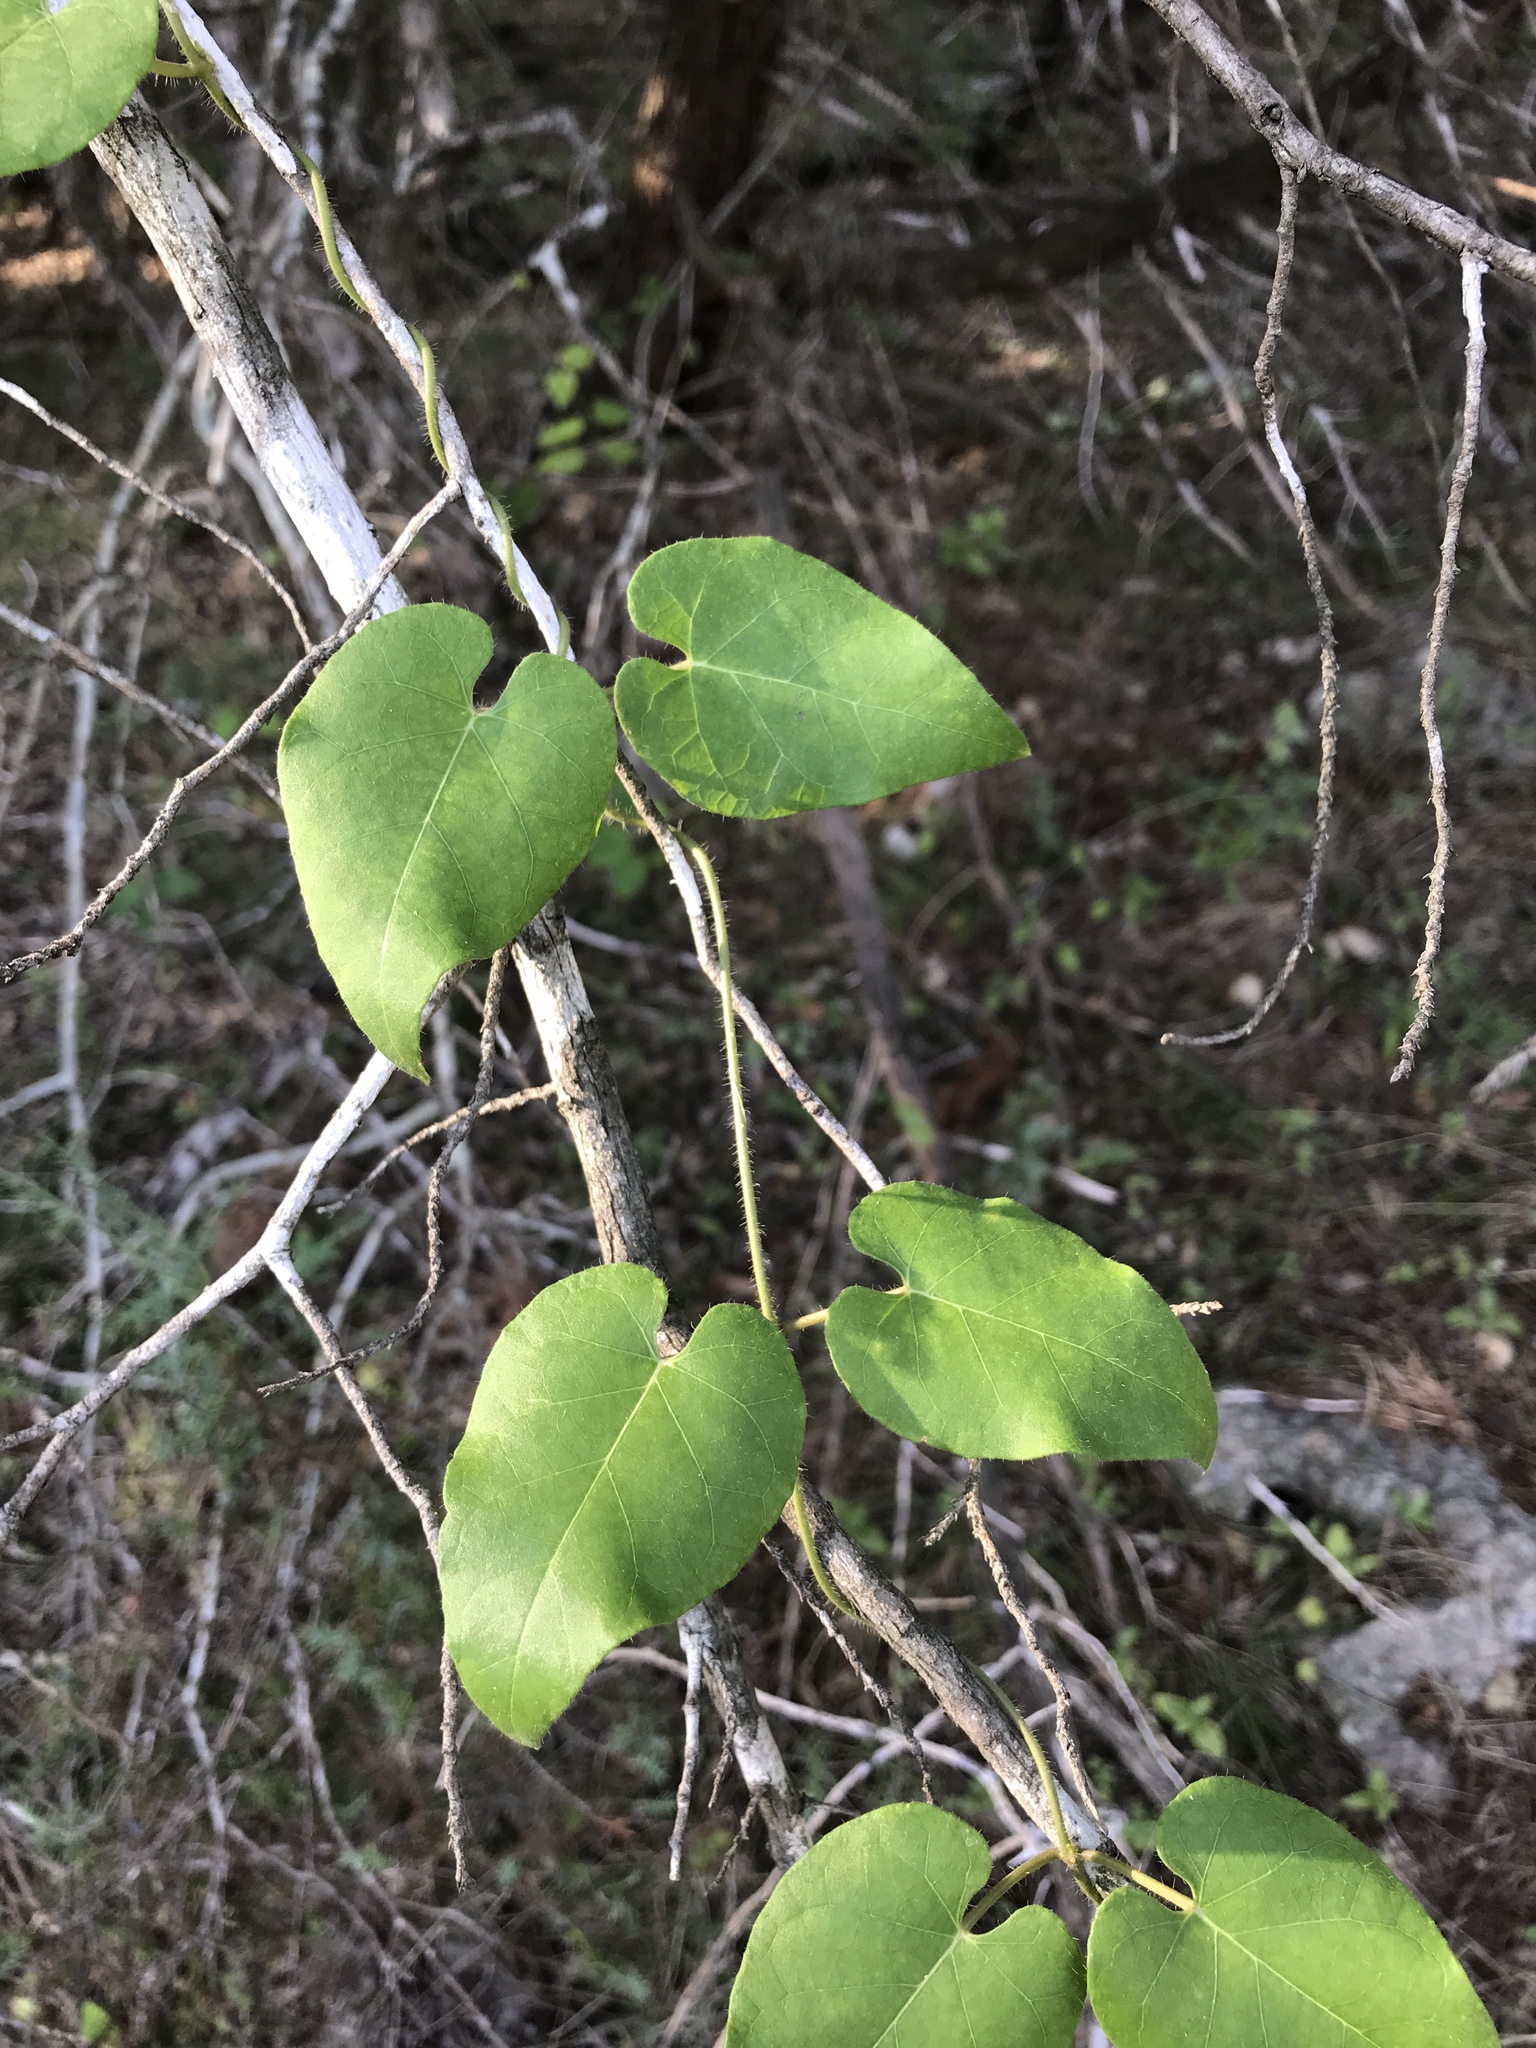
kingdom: Plantae
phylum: Tracheophyta
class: Magnoliopsida
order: Gentianales
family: Apocynaceae
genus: Dictyanthus
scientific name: Dictyanthus reticulatus
